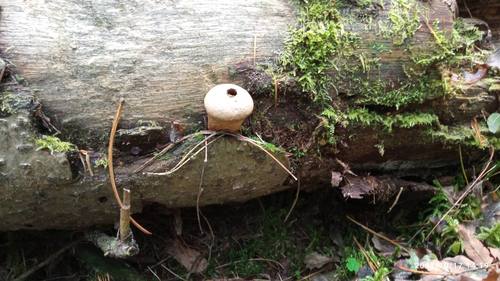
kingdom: Fungi
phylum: Basidiomycota
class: Agaricomycetes
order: Agaricales
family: Lycoperdaceae
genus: Lycoperdon
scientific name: Lycoperdon perlatum
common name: Common puffball
